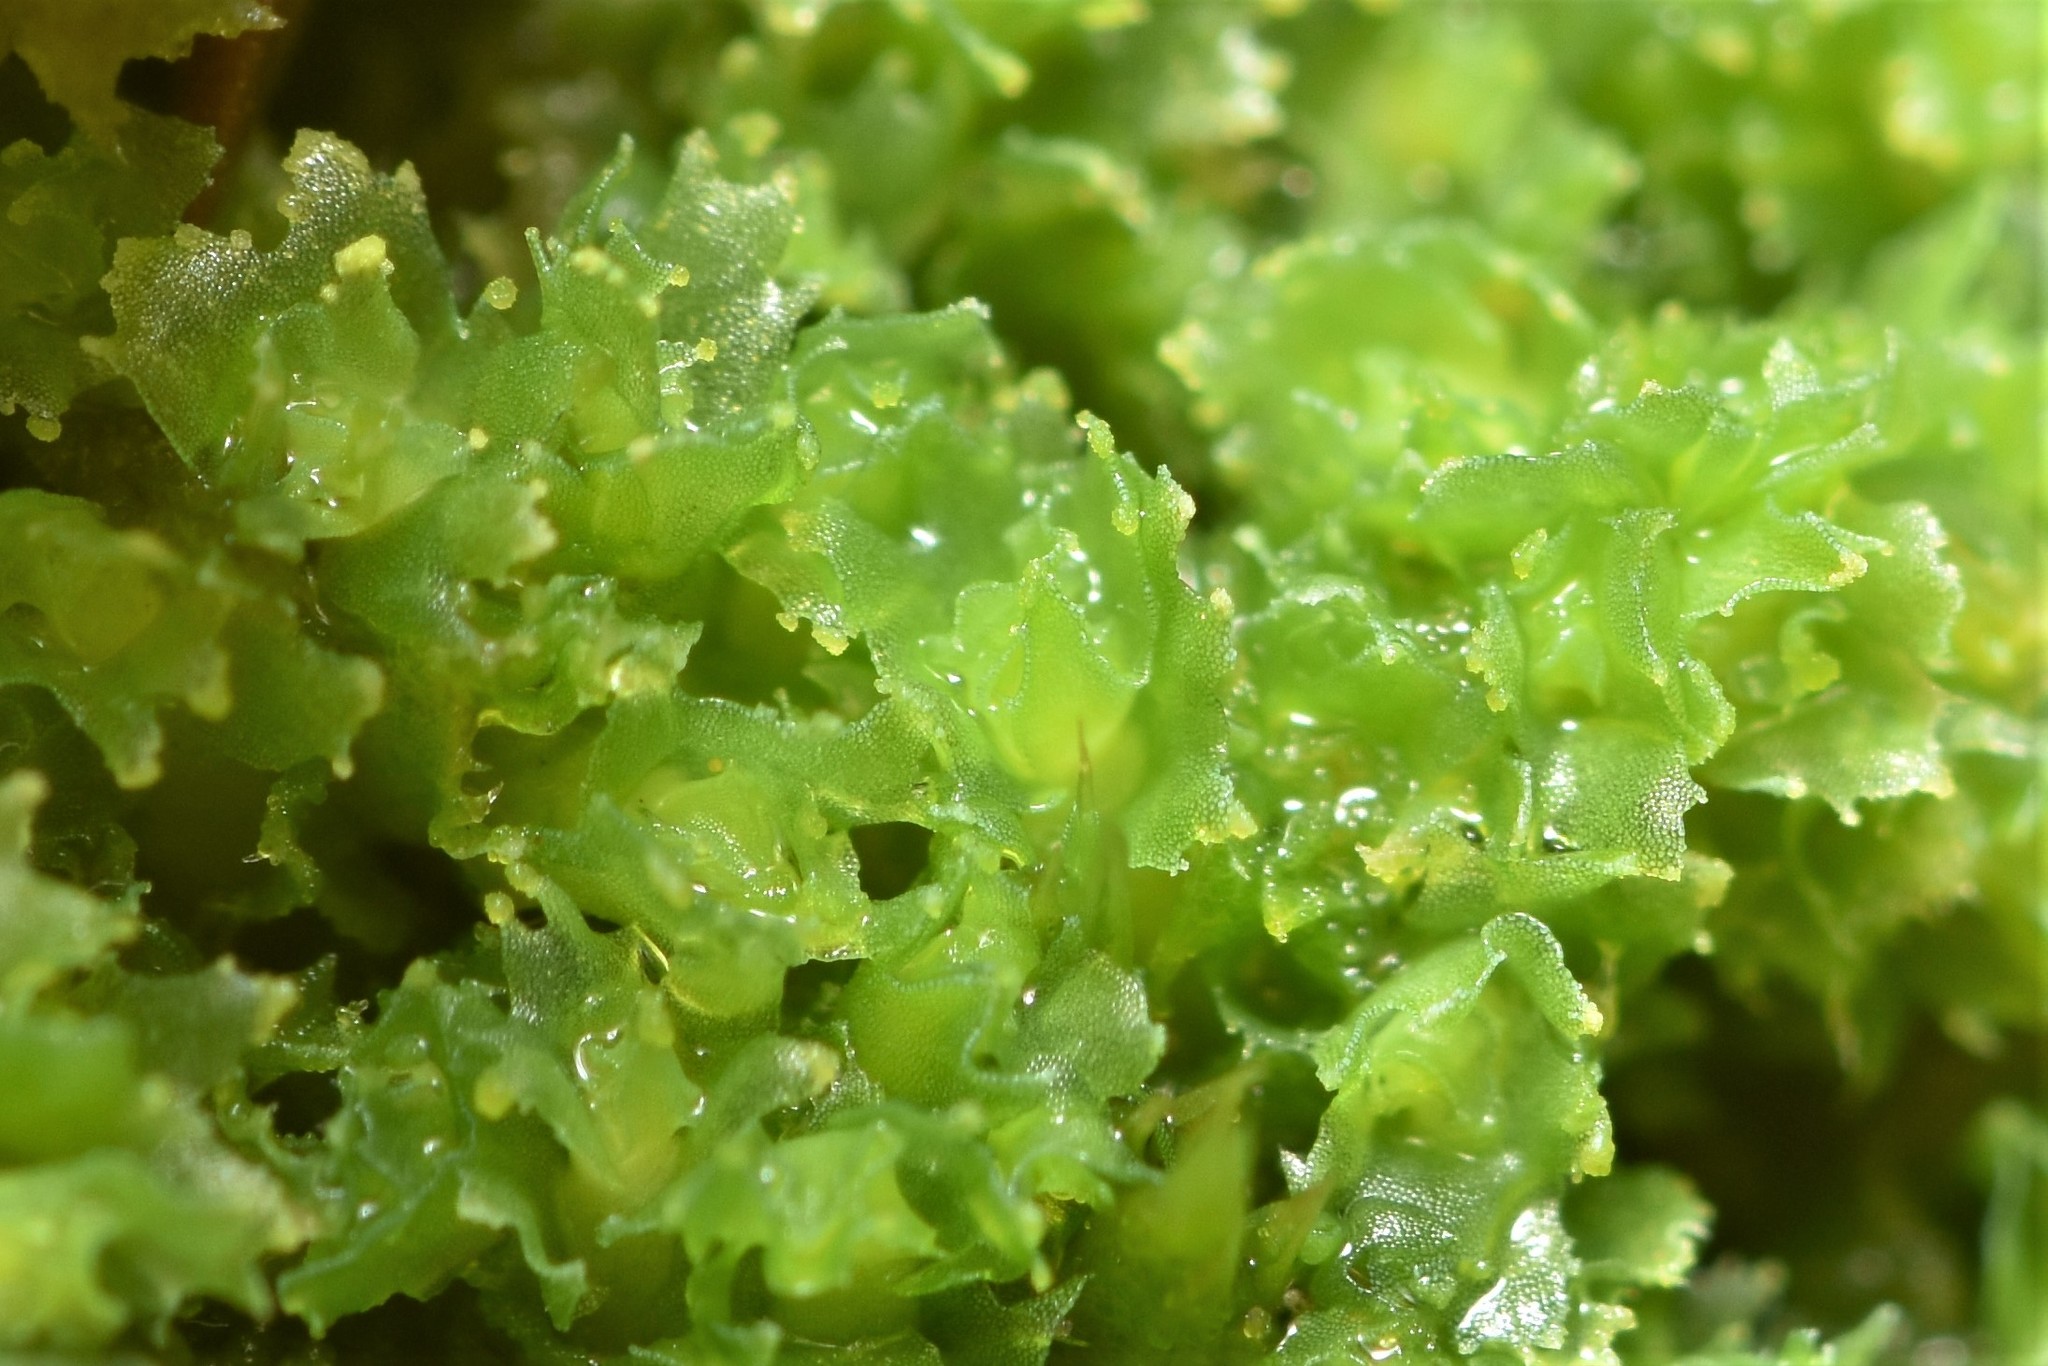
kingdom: Plantae
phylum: Marchantiophyta
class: Jungermanniopsida
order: Jungermanniales
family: Scapaniaceae
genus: Schistochilopsis
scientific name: Schistochilopsis incisa
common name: Jagged notchwort
